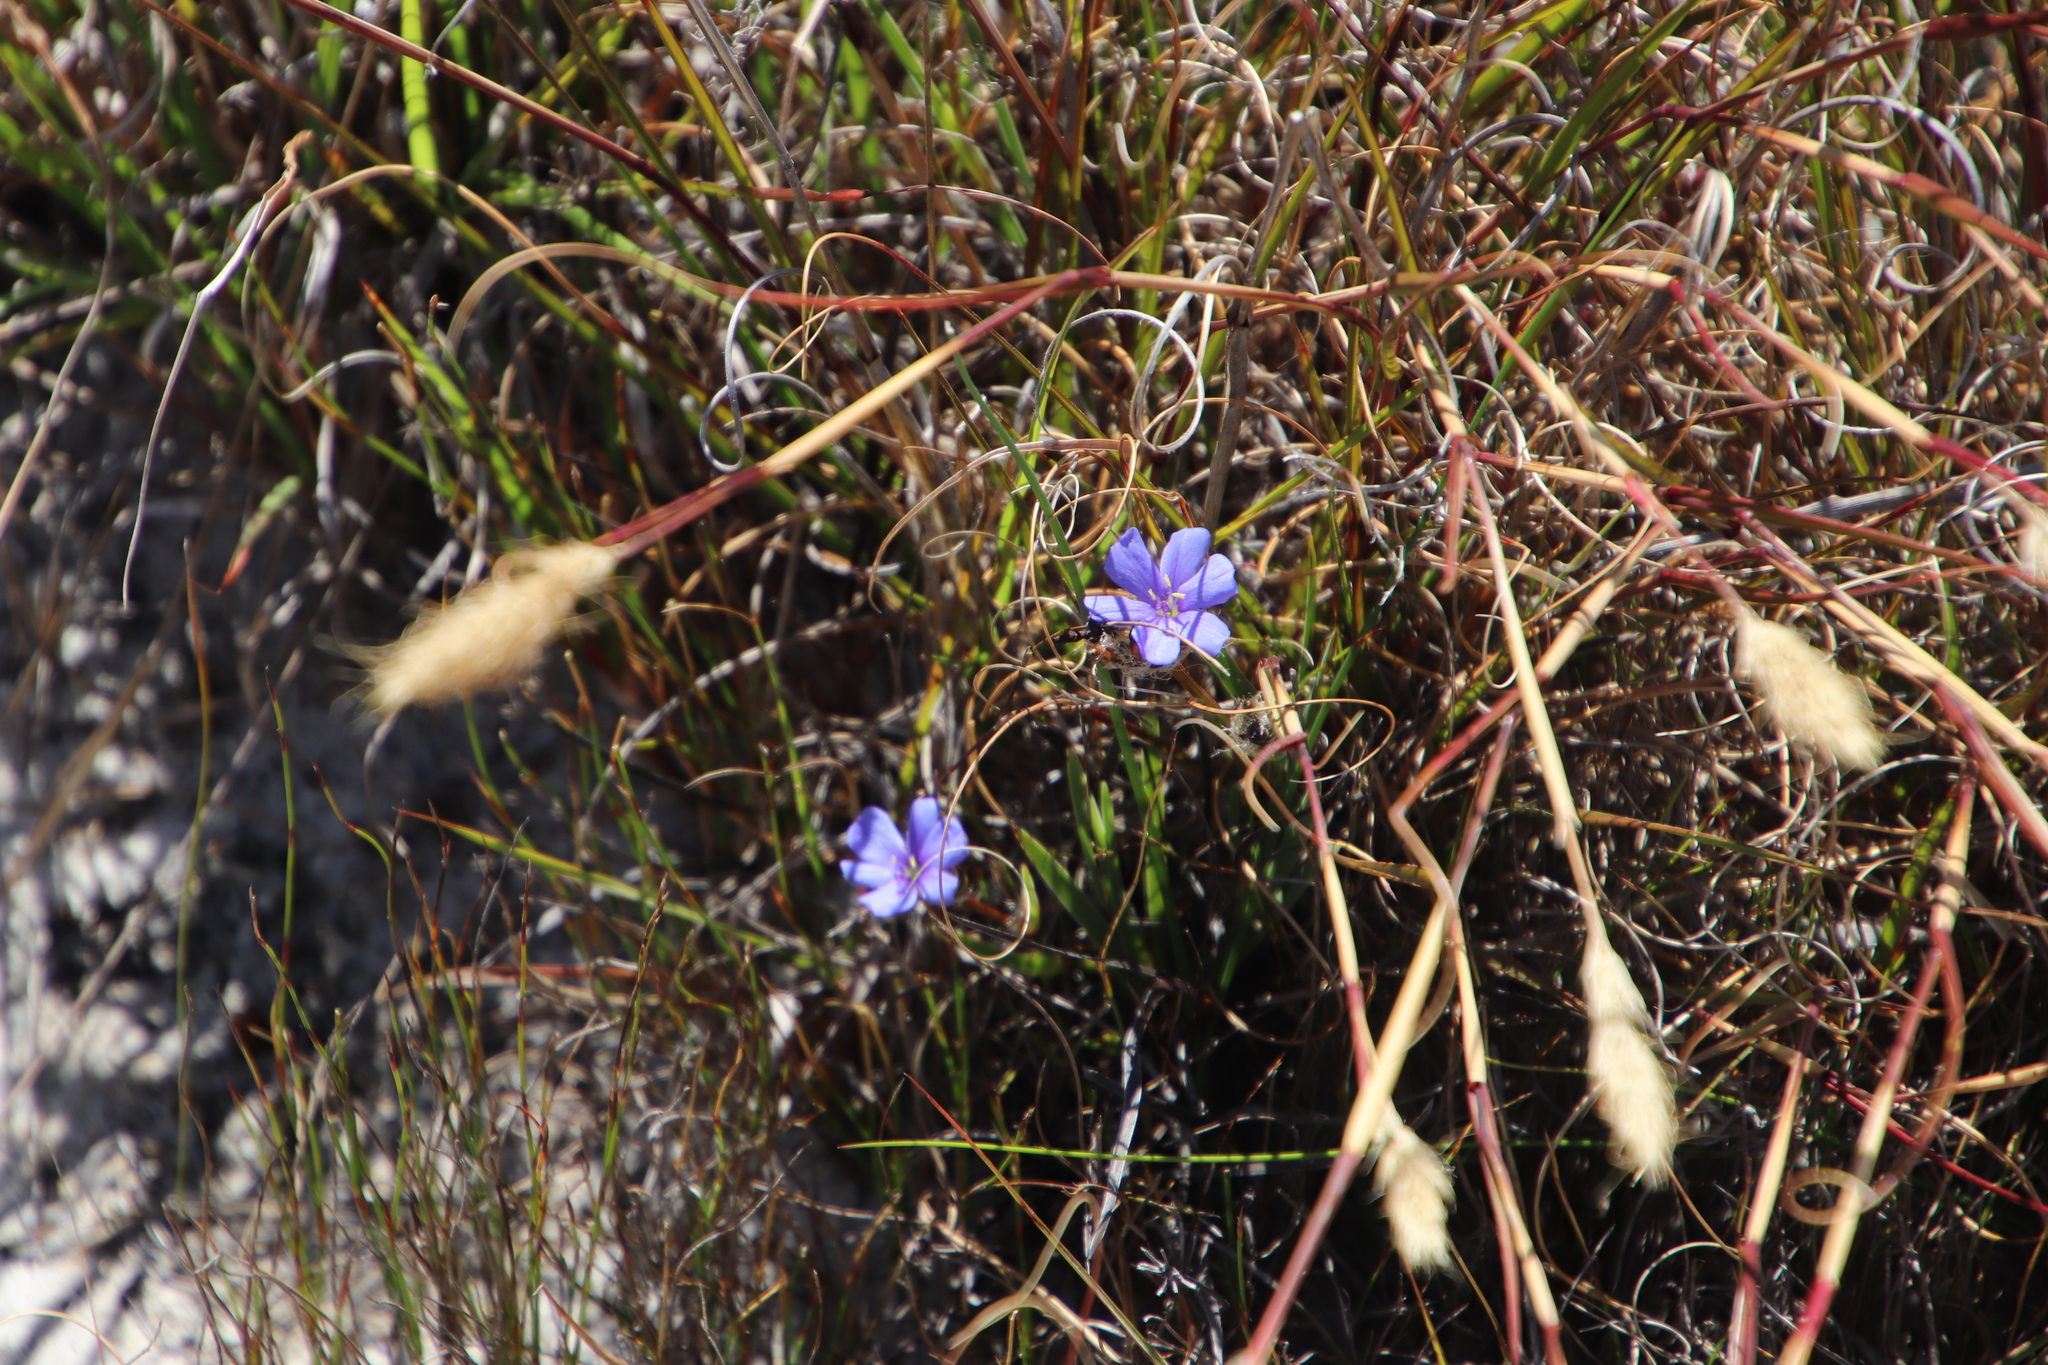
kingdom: Plantae
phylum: Tracheophyta
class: Liliopsida
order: Asparagales
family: Iridaceae
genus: Aristea
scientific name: Aristea africana
